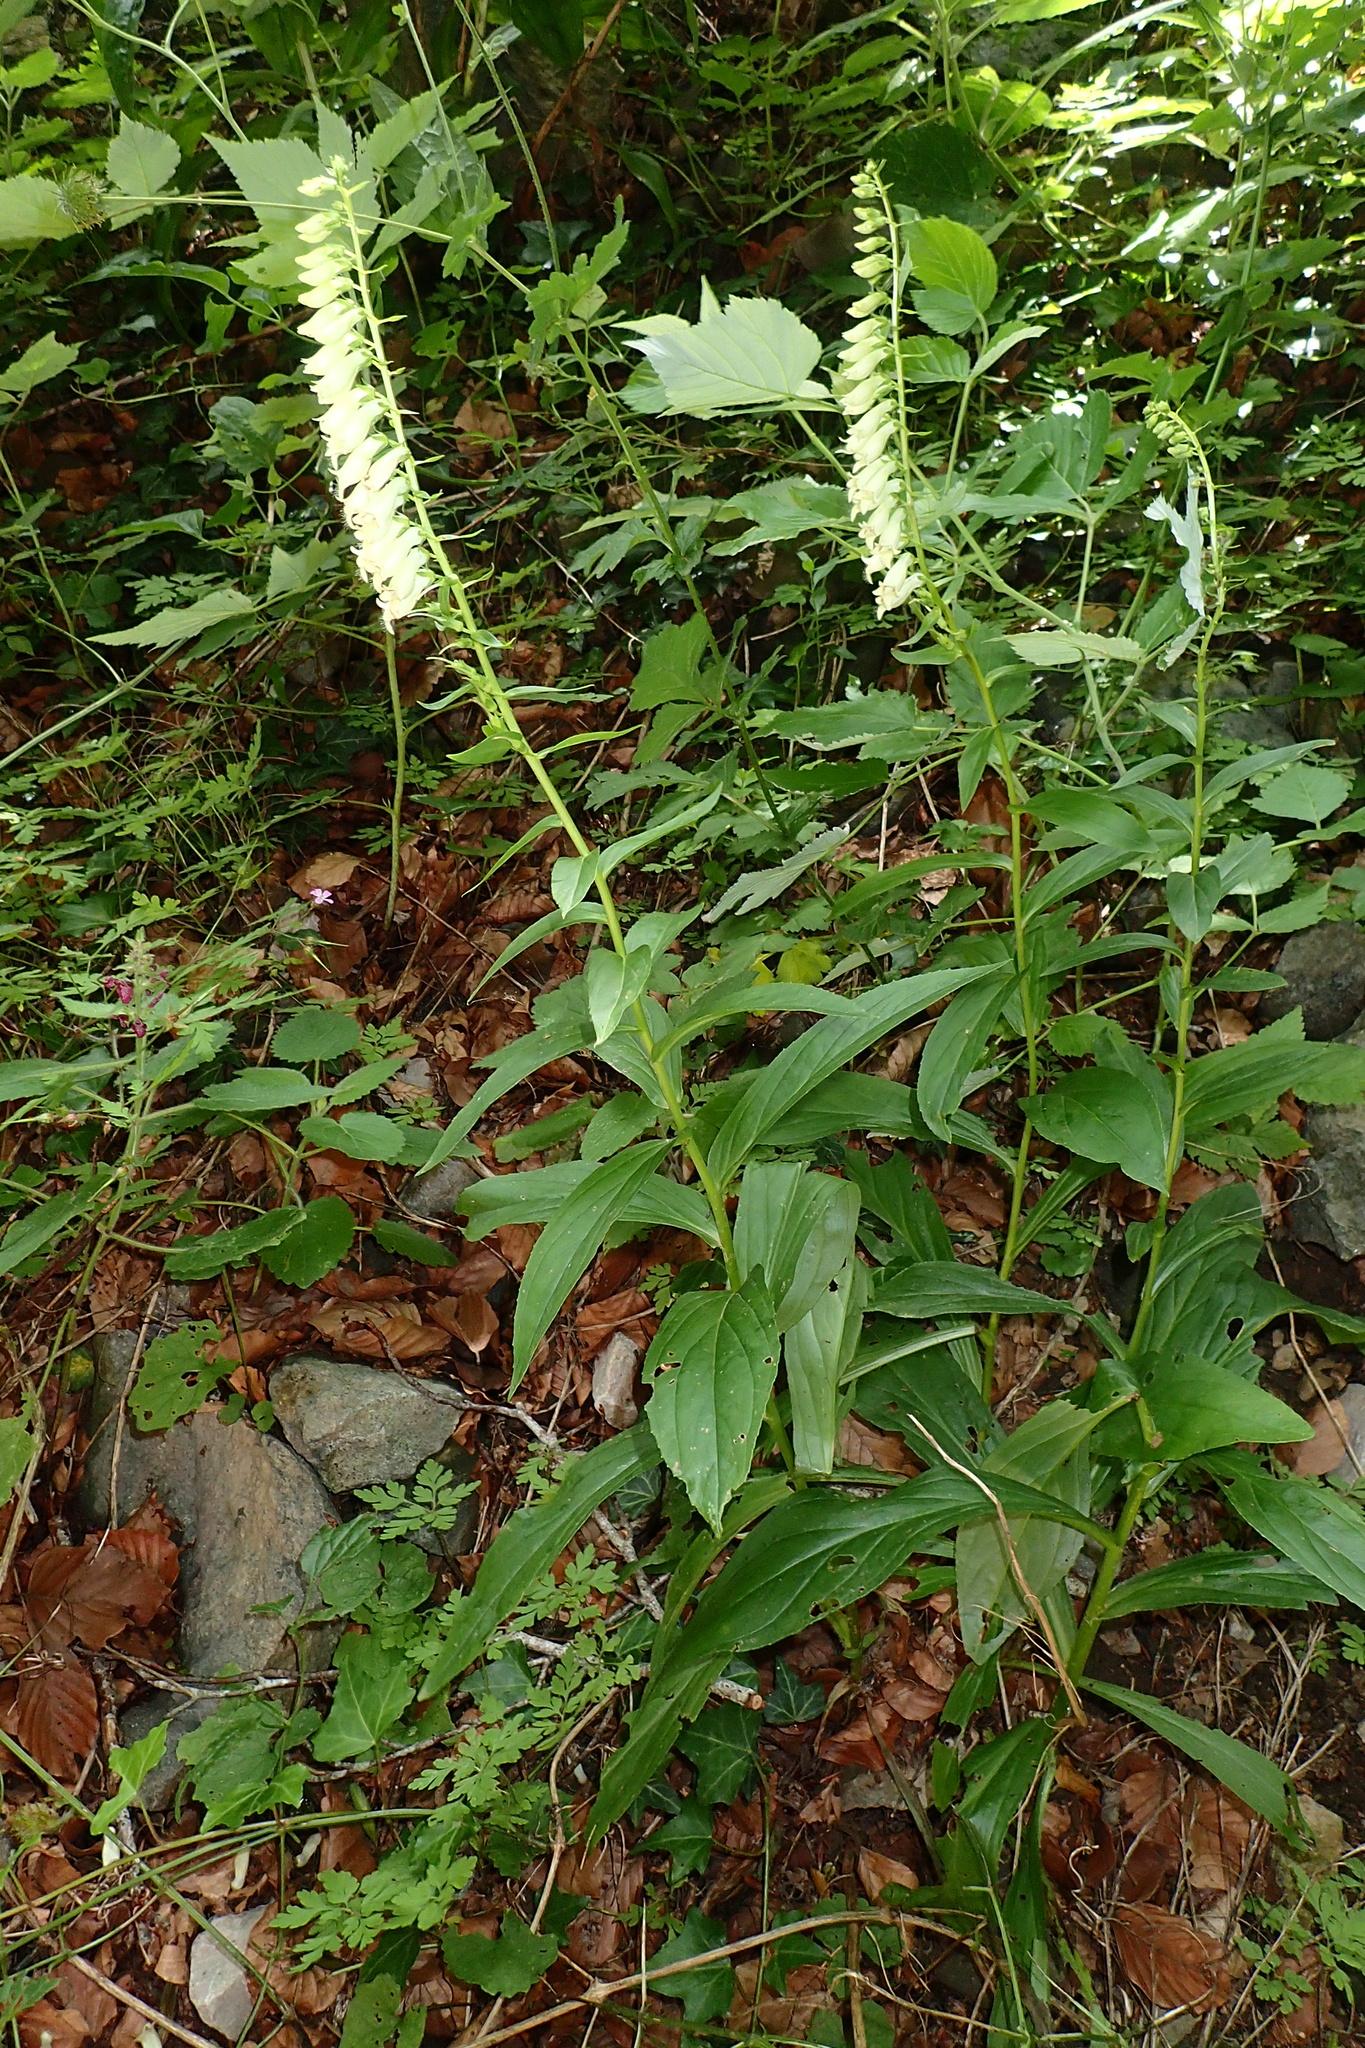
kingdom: Plantae
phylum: Tracheophyta
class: Magnoliopsida
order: Lamiales
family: Plantaginaceae
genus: Digitalis
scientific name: Digitalis lutea
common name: Straw foxglove
